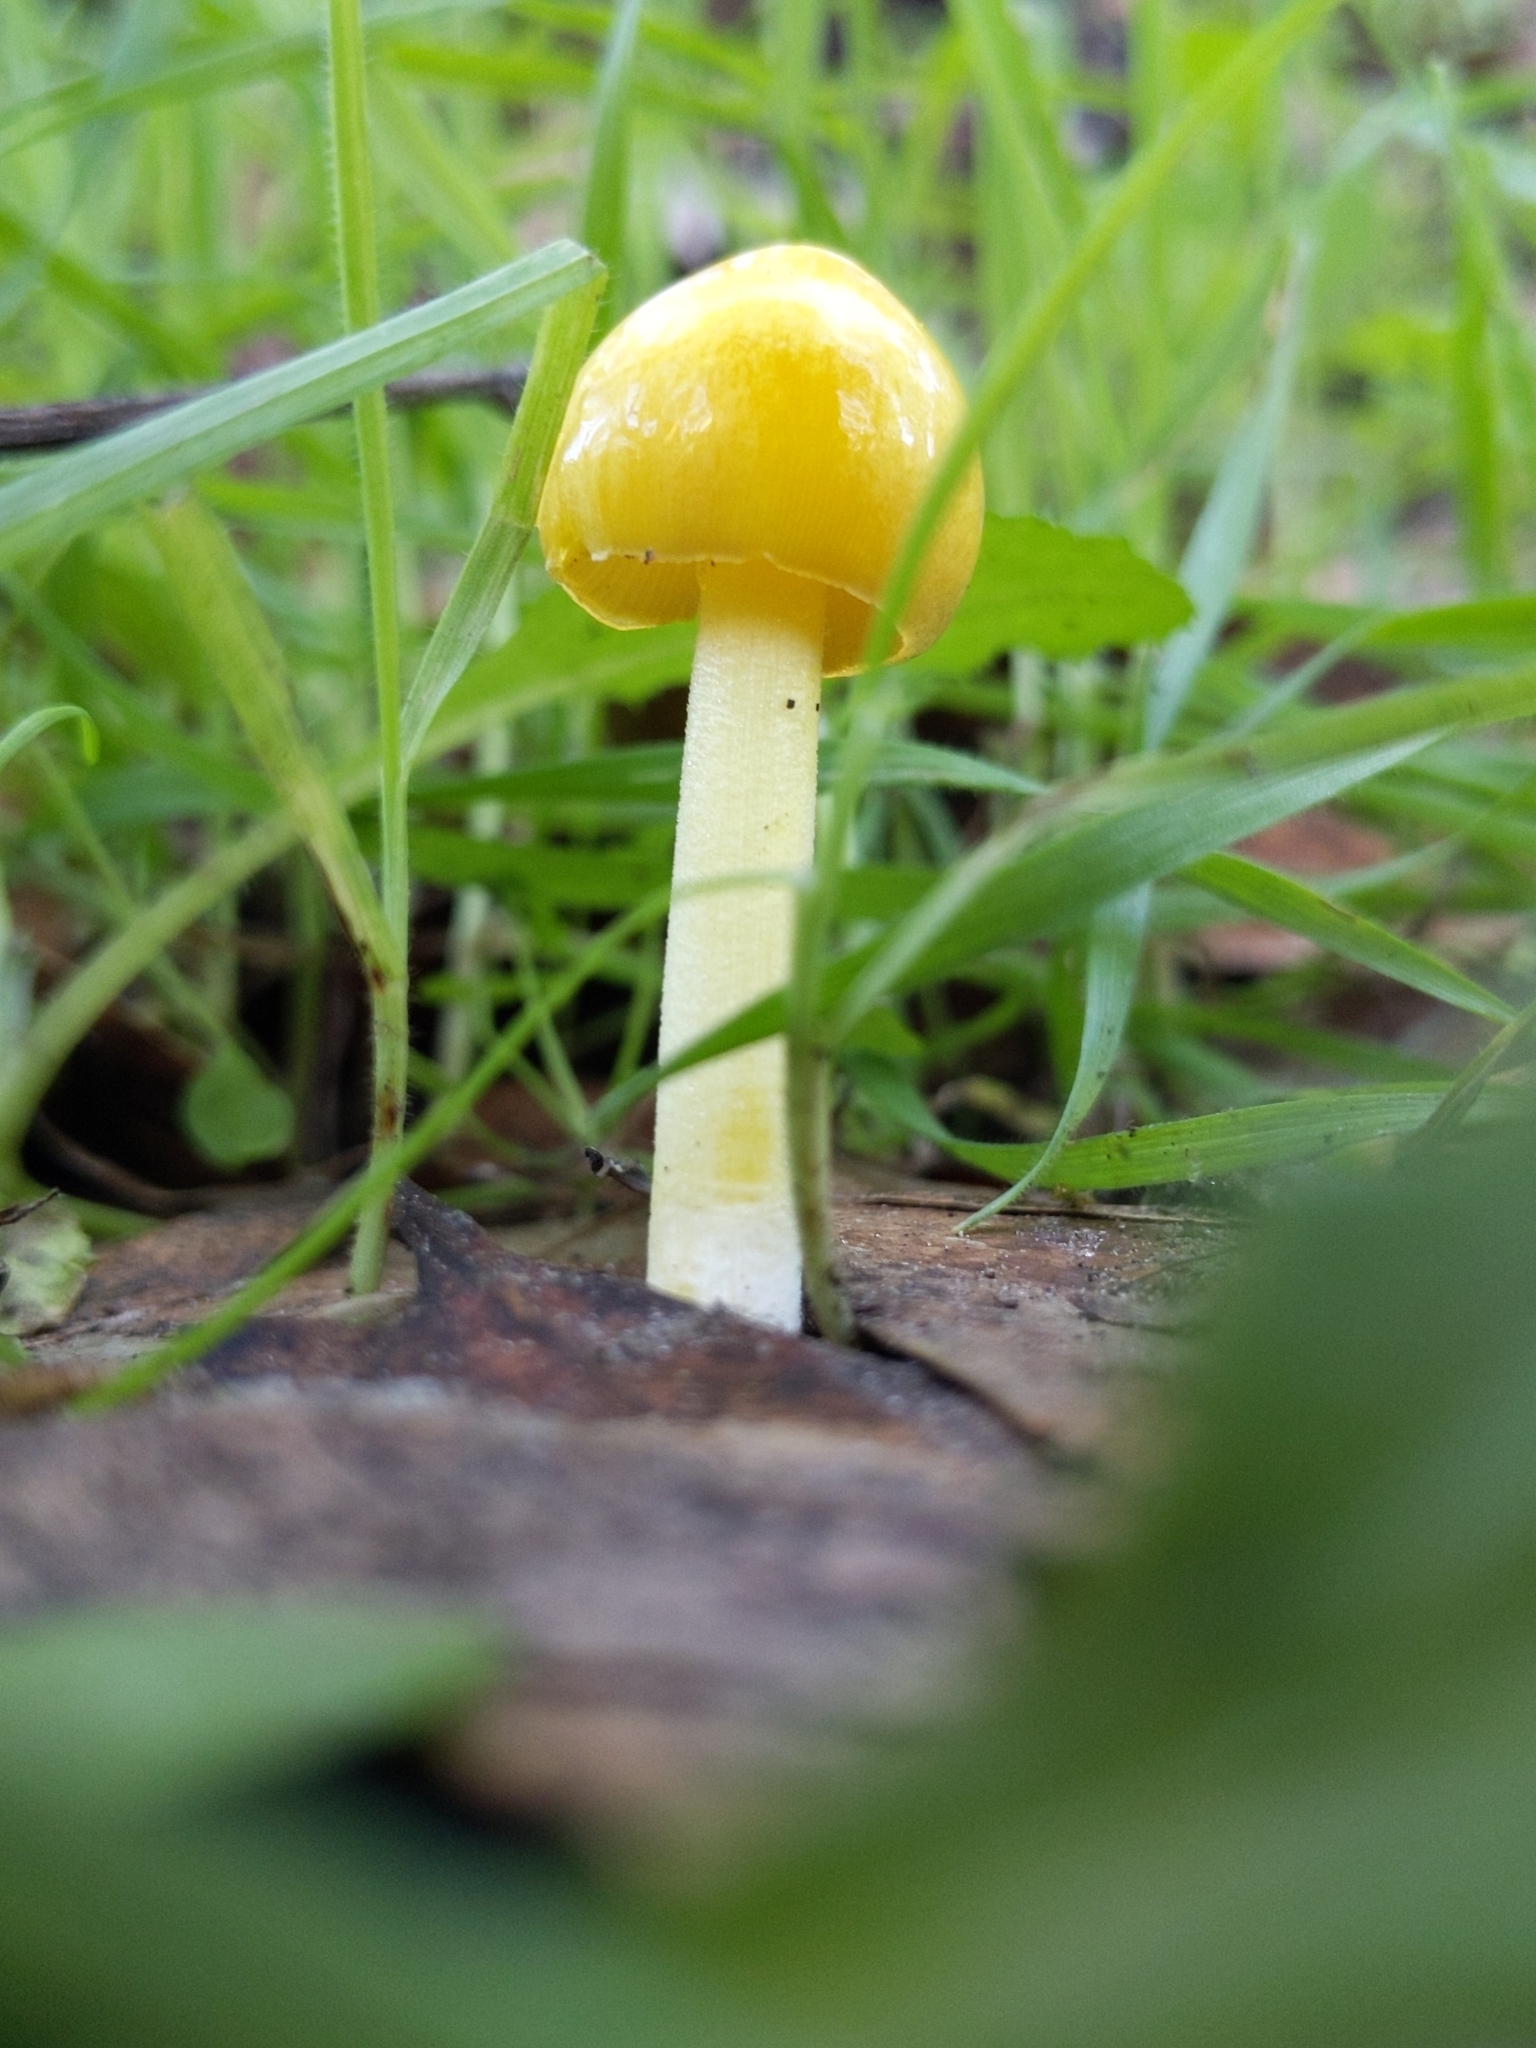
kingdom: Fungi
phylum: Basidiomycota
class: Agaricomycetes
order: Agaricales
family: Bolbitiaceae
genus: Bolbitius
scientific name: Bolbitius titubans
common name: Yellow fieldcap
